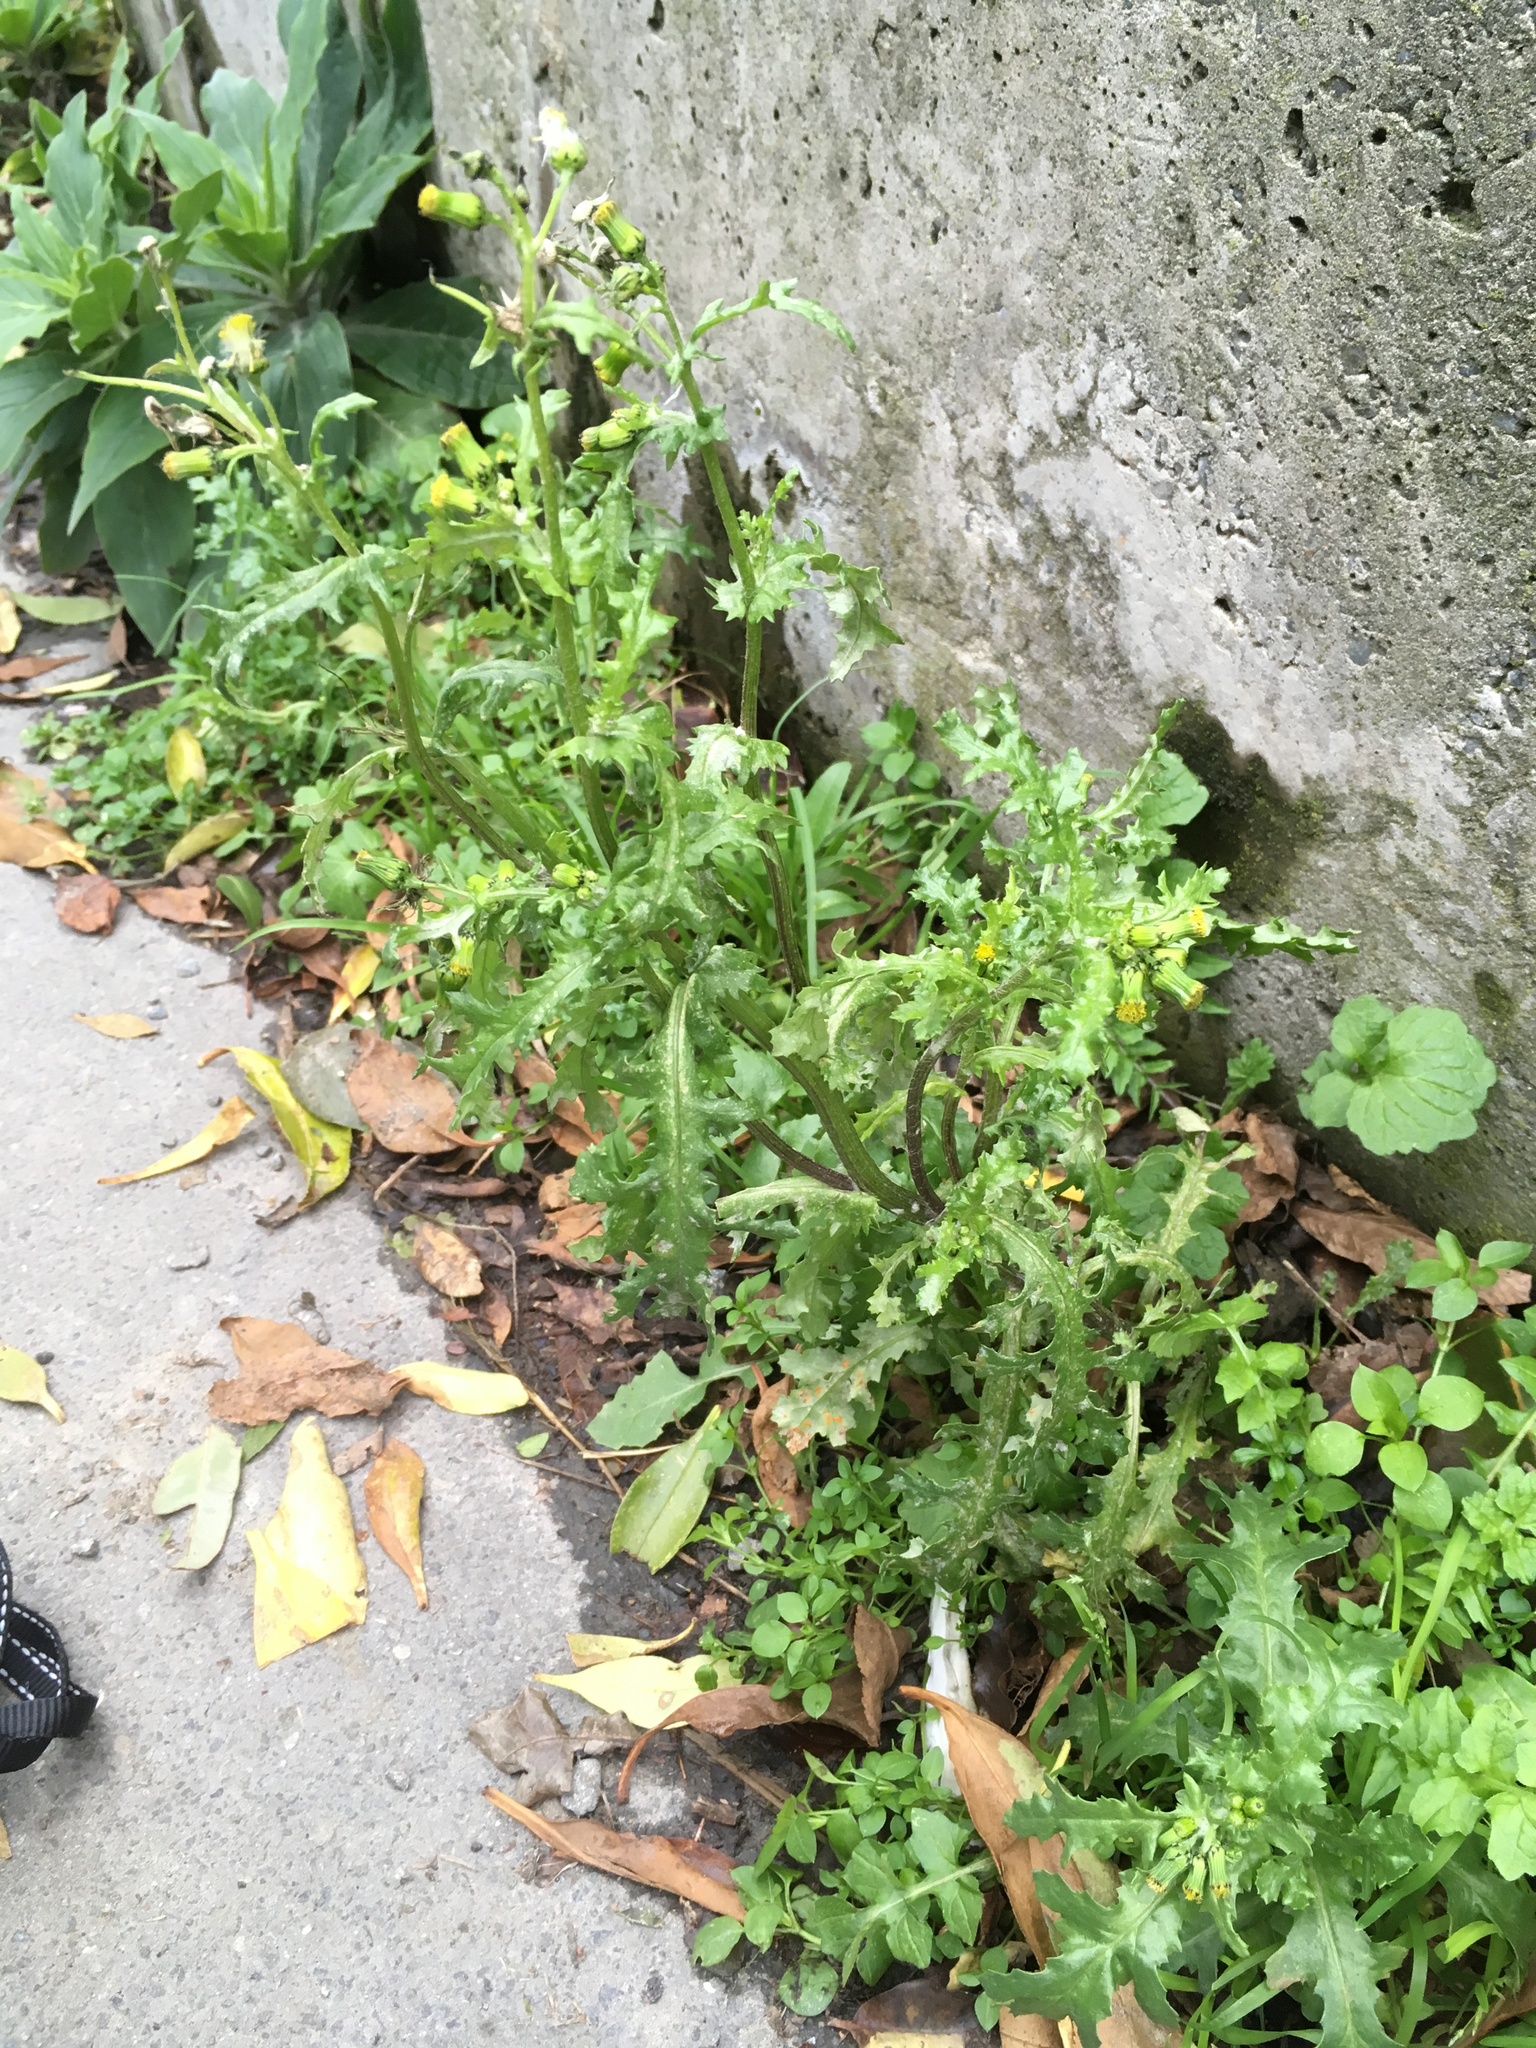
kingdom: Plantae
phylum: Tracheophyta
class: Magnoliopsida
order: Asterales
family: Asteraceae
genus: Senecio
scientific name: Senecio vulgaris
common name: Old-man-in-the-spring
